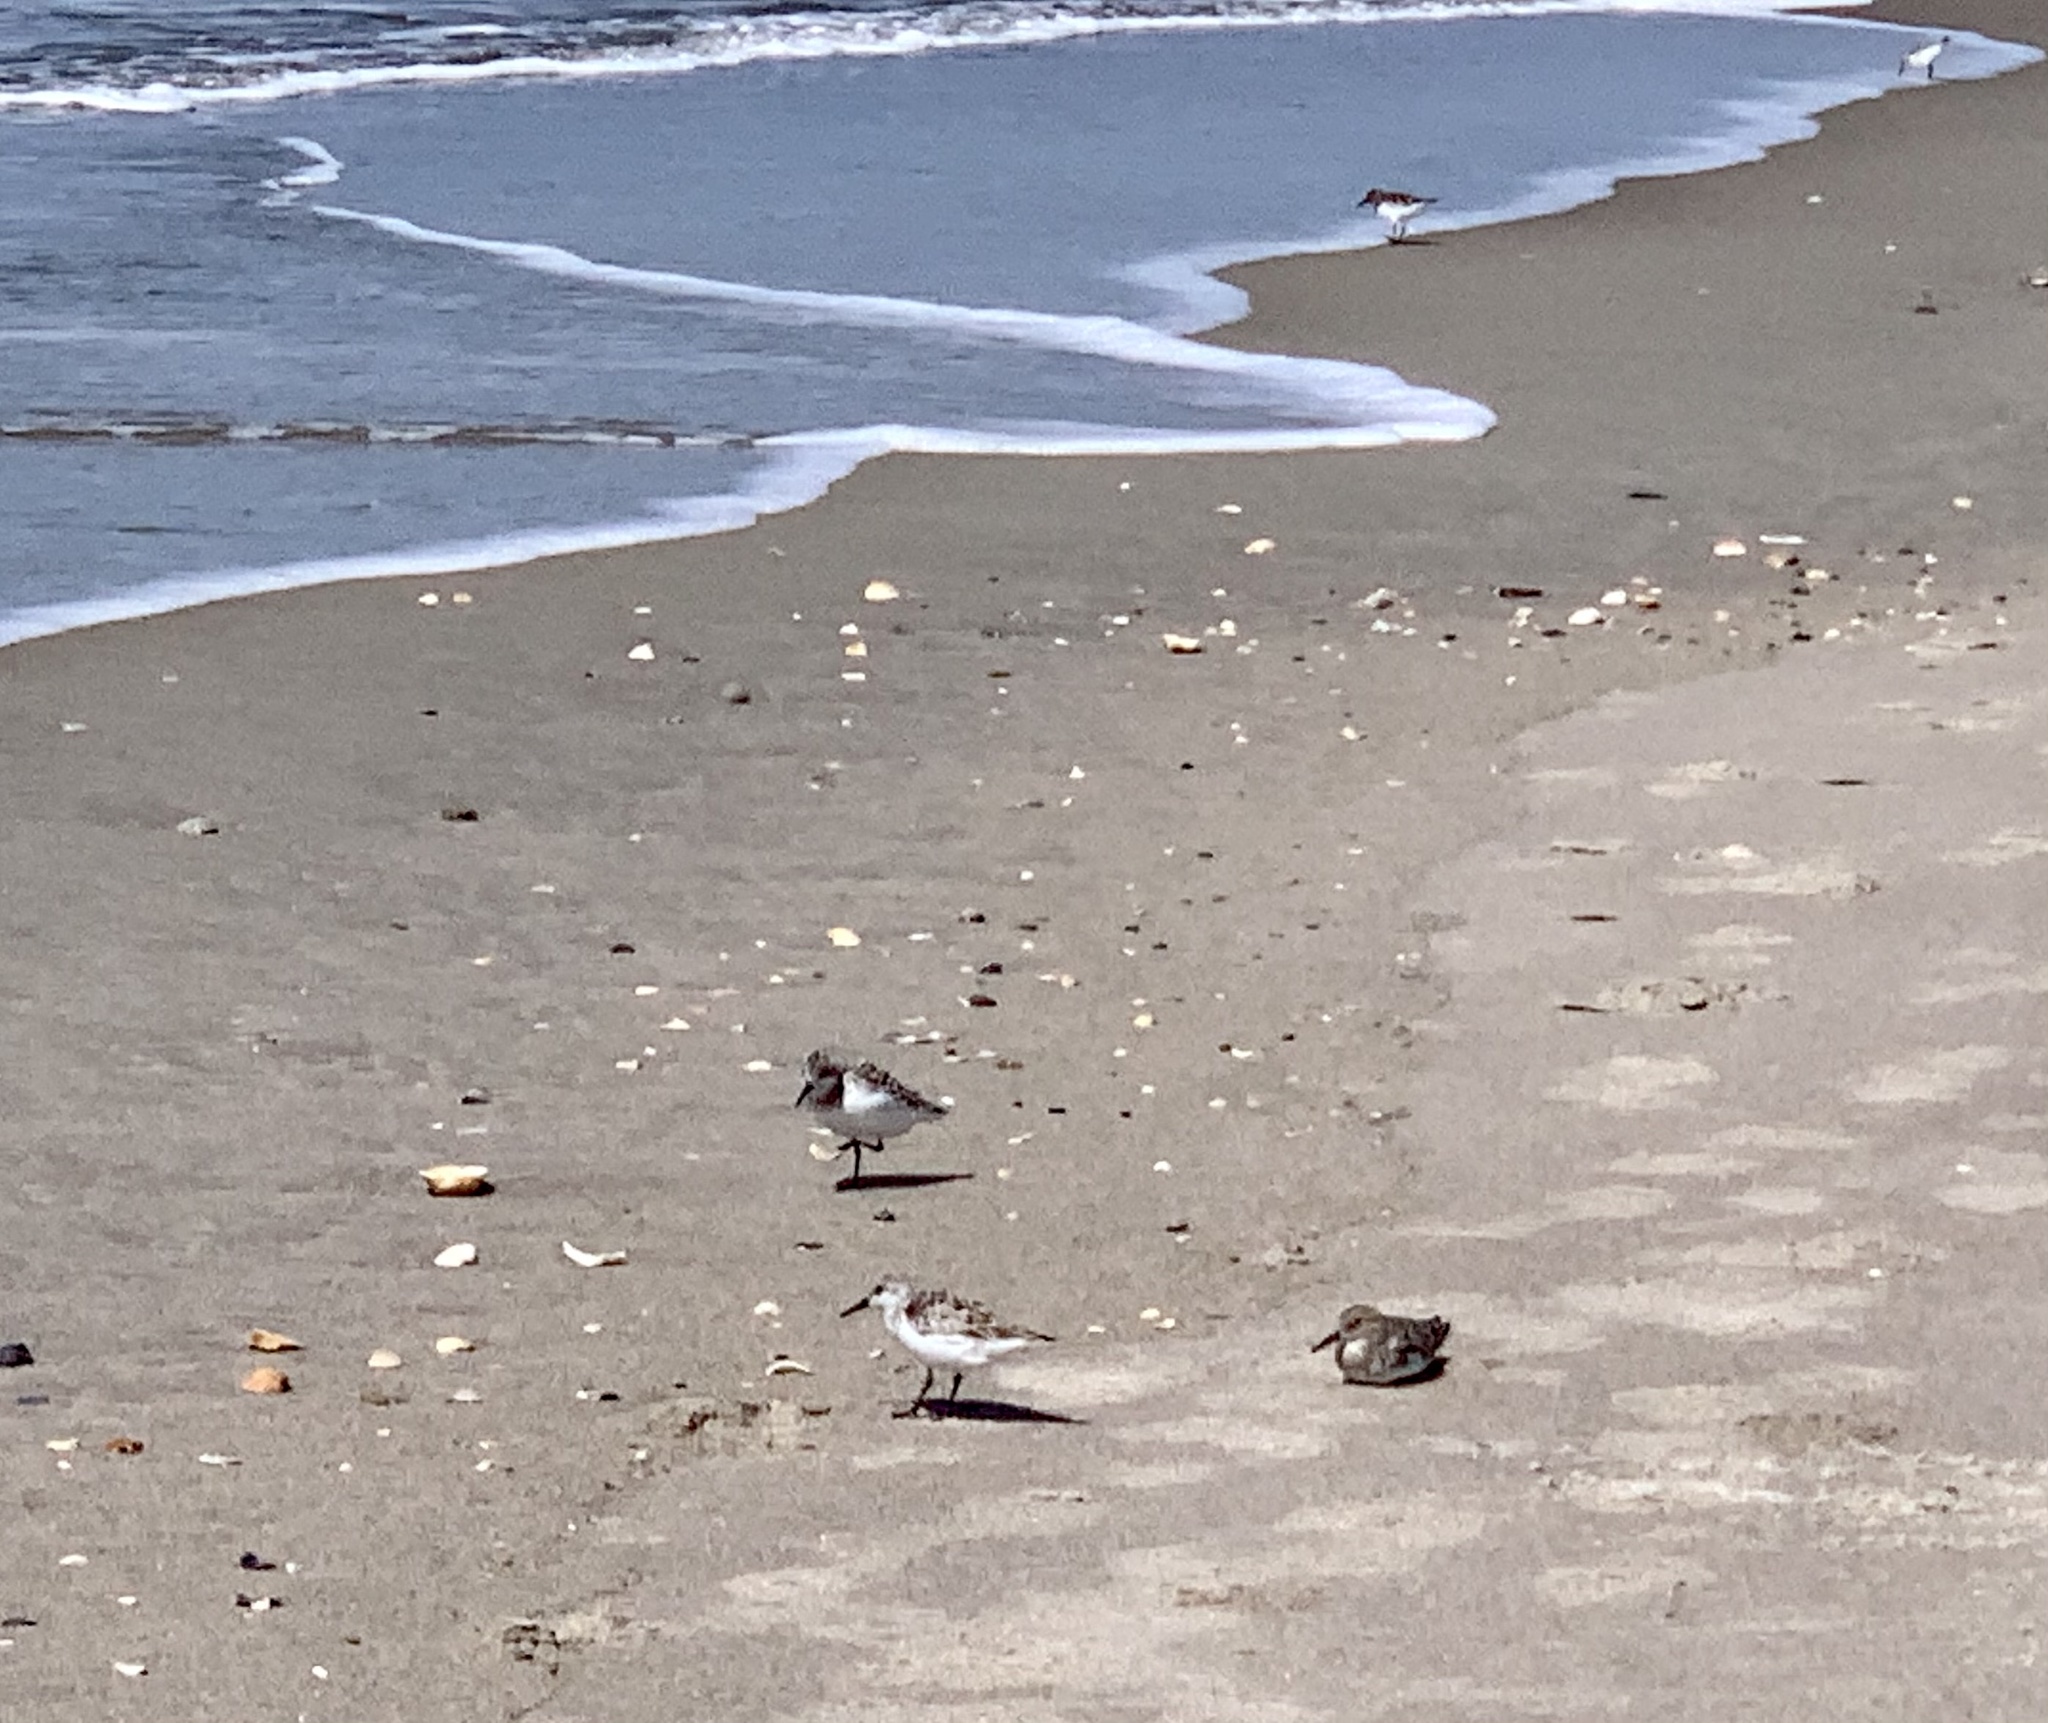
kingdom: Animalia
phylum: Chordata
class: Aves
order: Charadriiformes
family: Scolopacidae
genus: Calidris
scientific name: Calidris alba
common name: Sanderling
